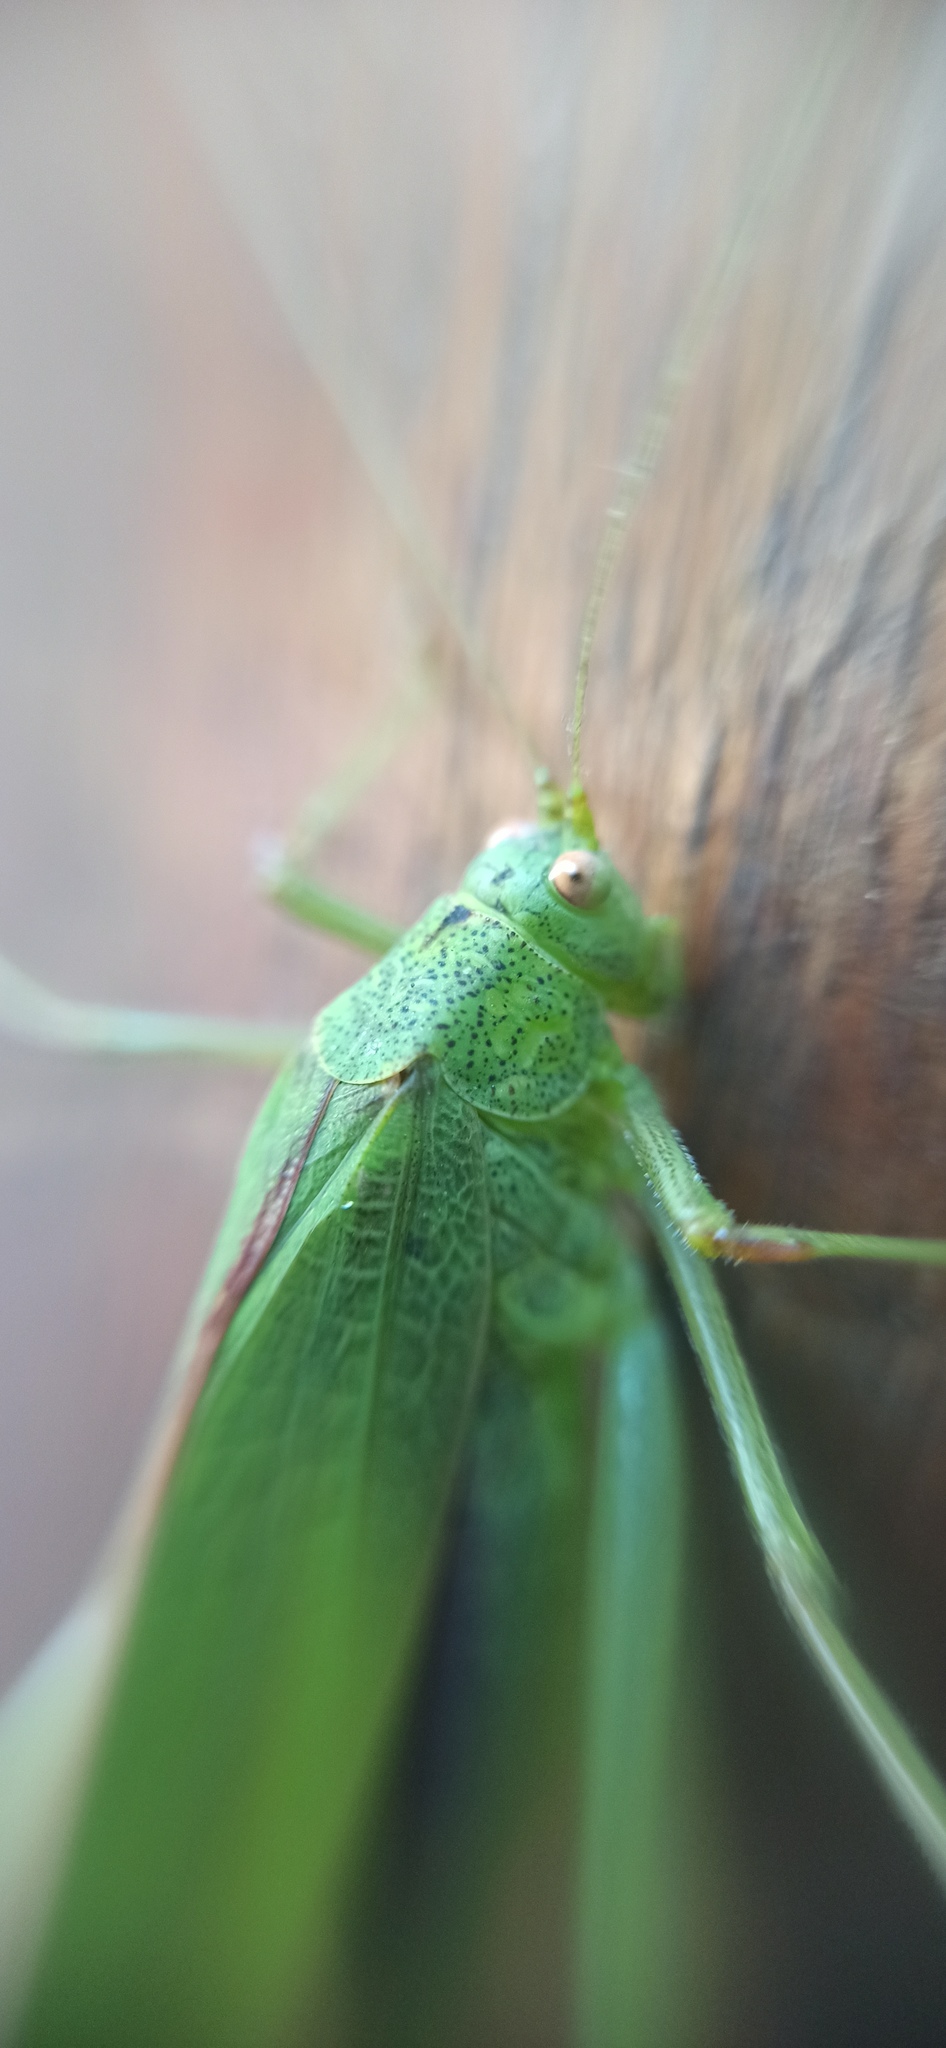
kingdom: Animalia
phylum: Arthropoda
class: Insecta
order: Orthoptera
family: Tettigoniidae
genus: Phaneroptera
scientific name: Phaneroptera nana
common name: Southern sickle bush-cricket
